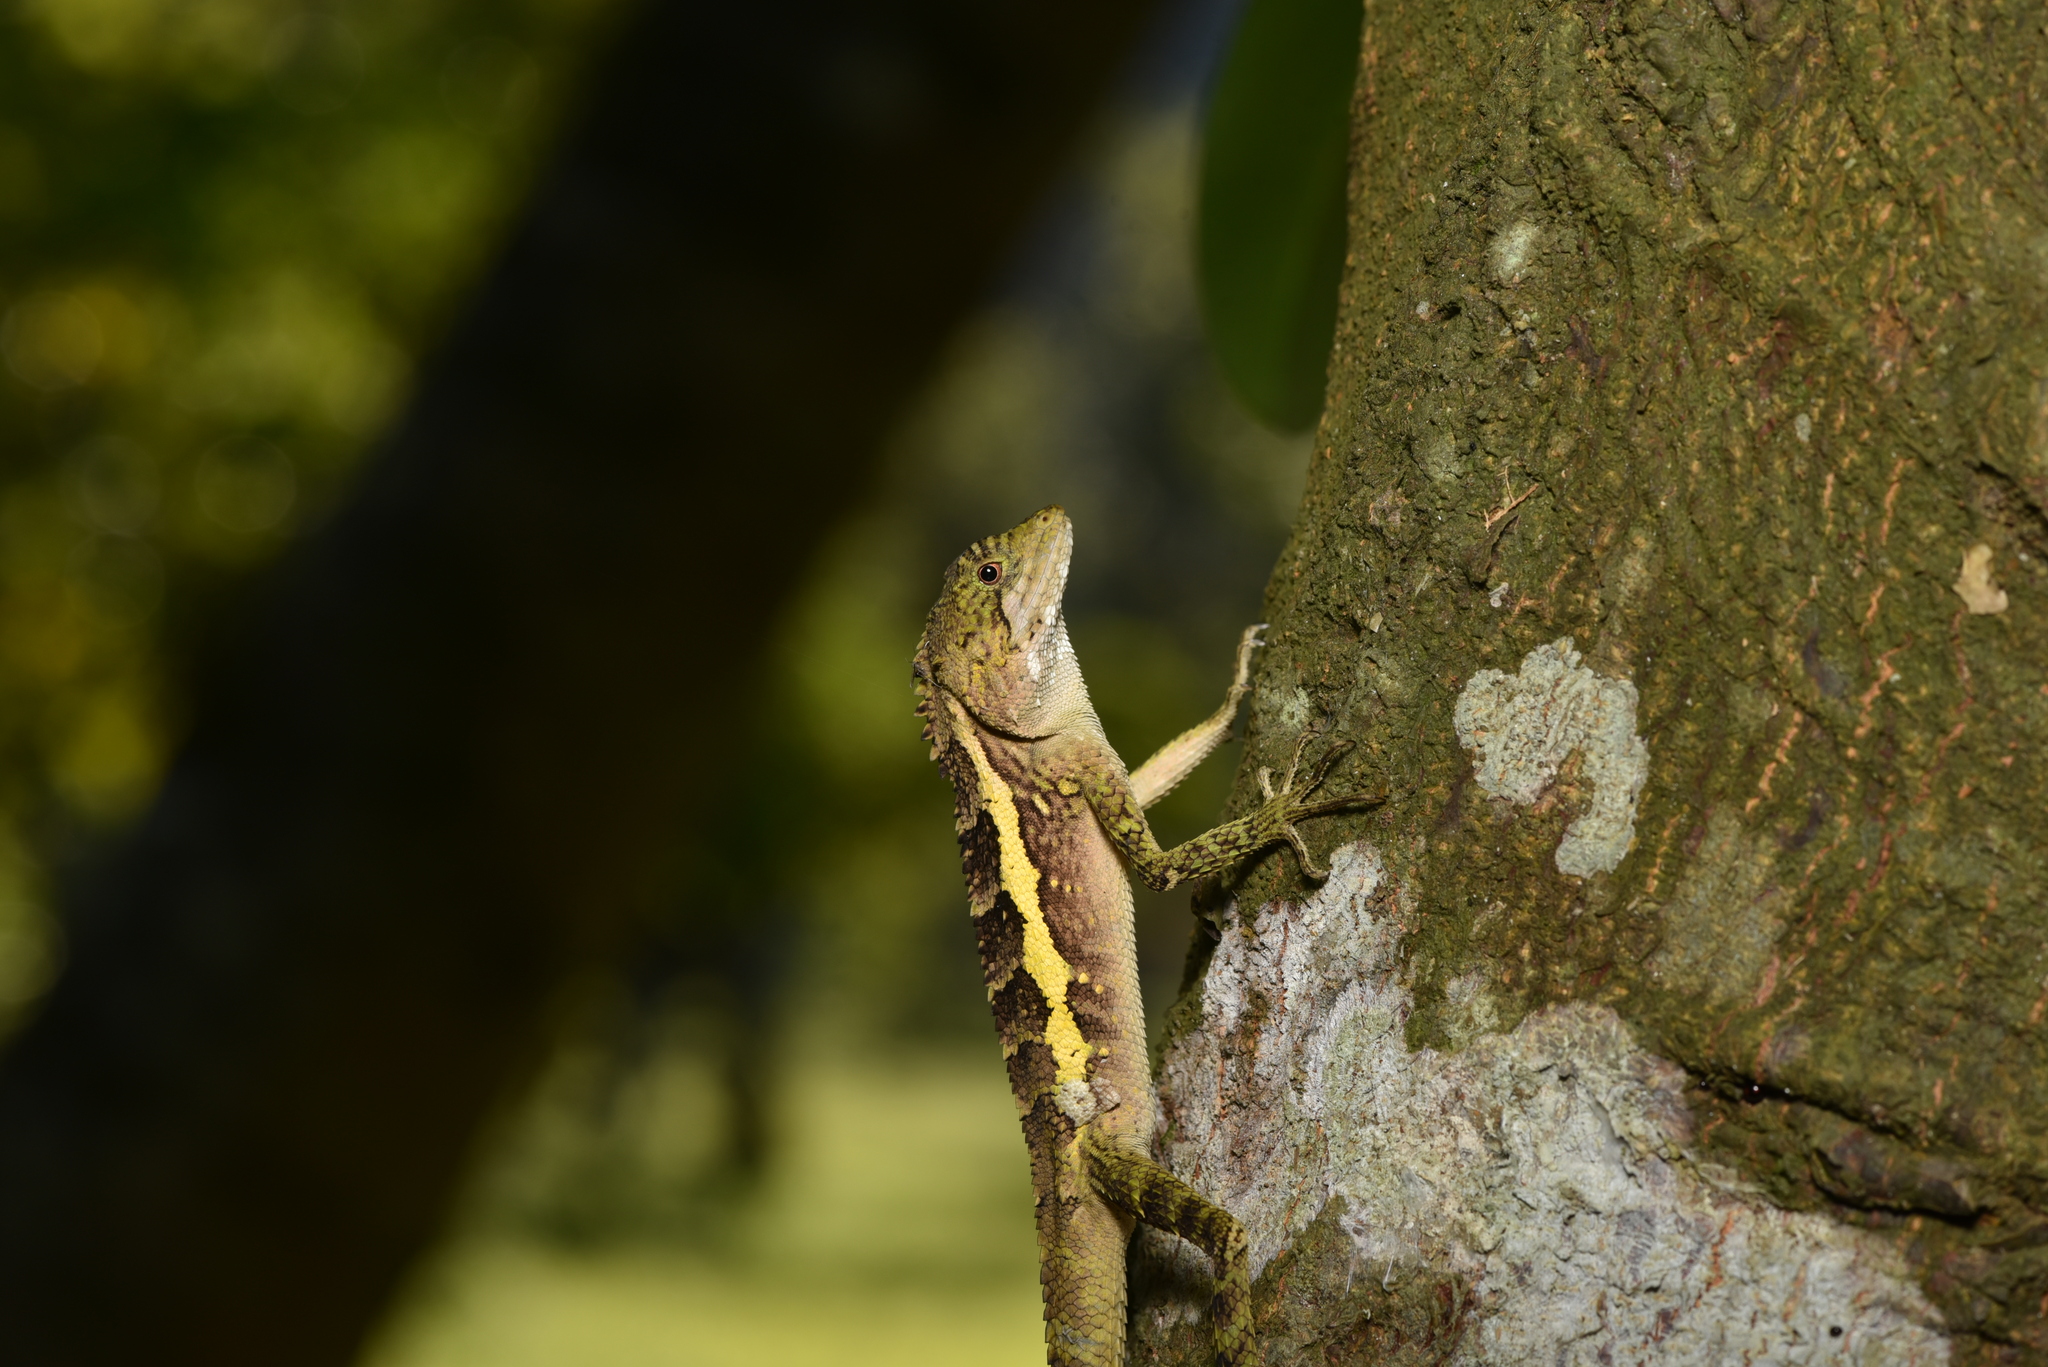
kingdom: Animalia
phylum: Chordata
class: Squamata
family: Agamidae
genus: Diploderma
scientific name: Diploderma swinhonis
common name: Taiwan japalure
